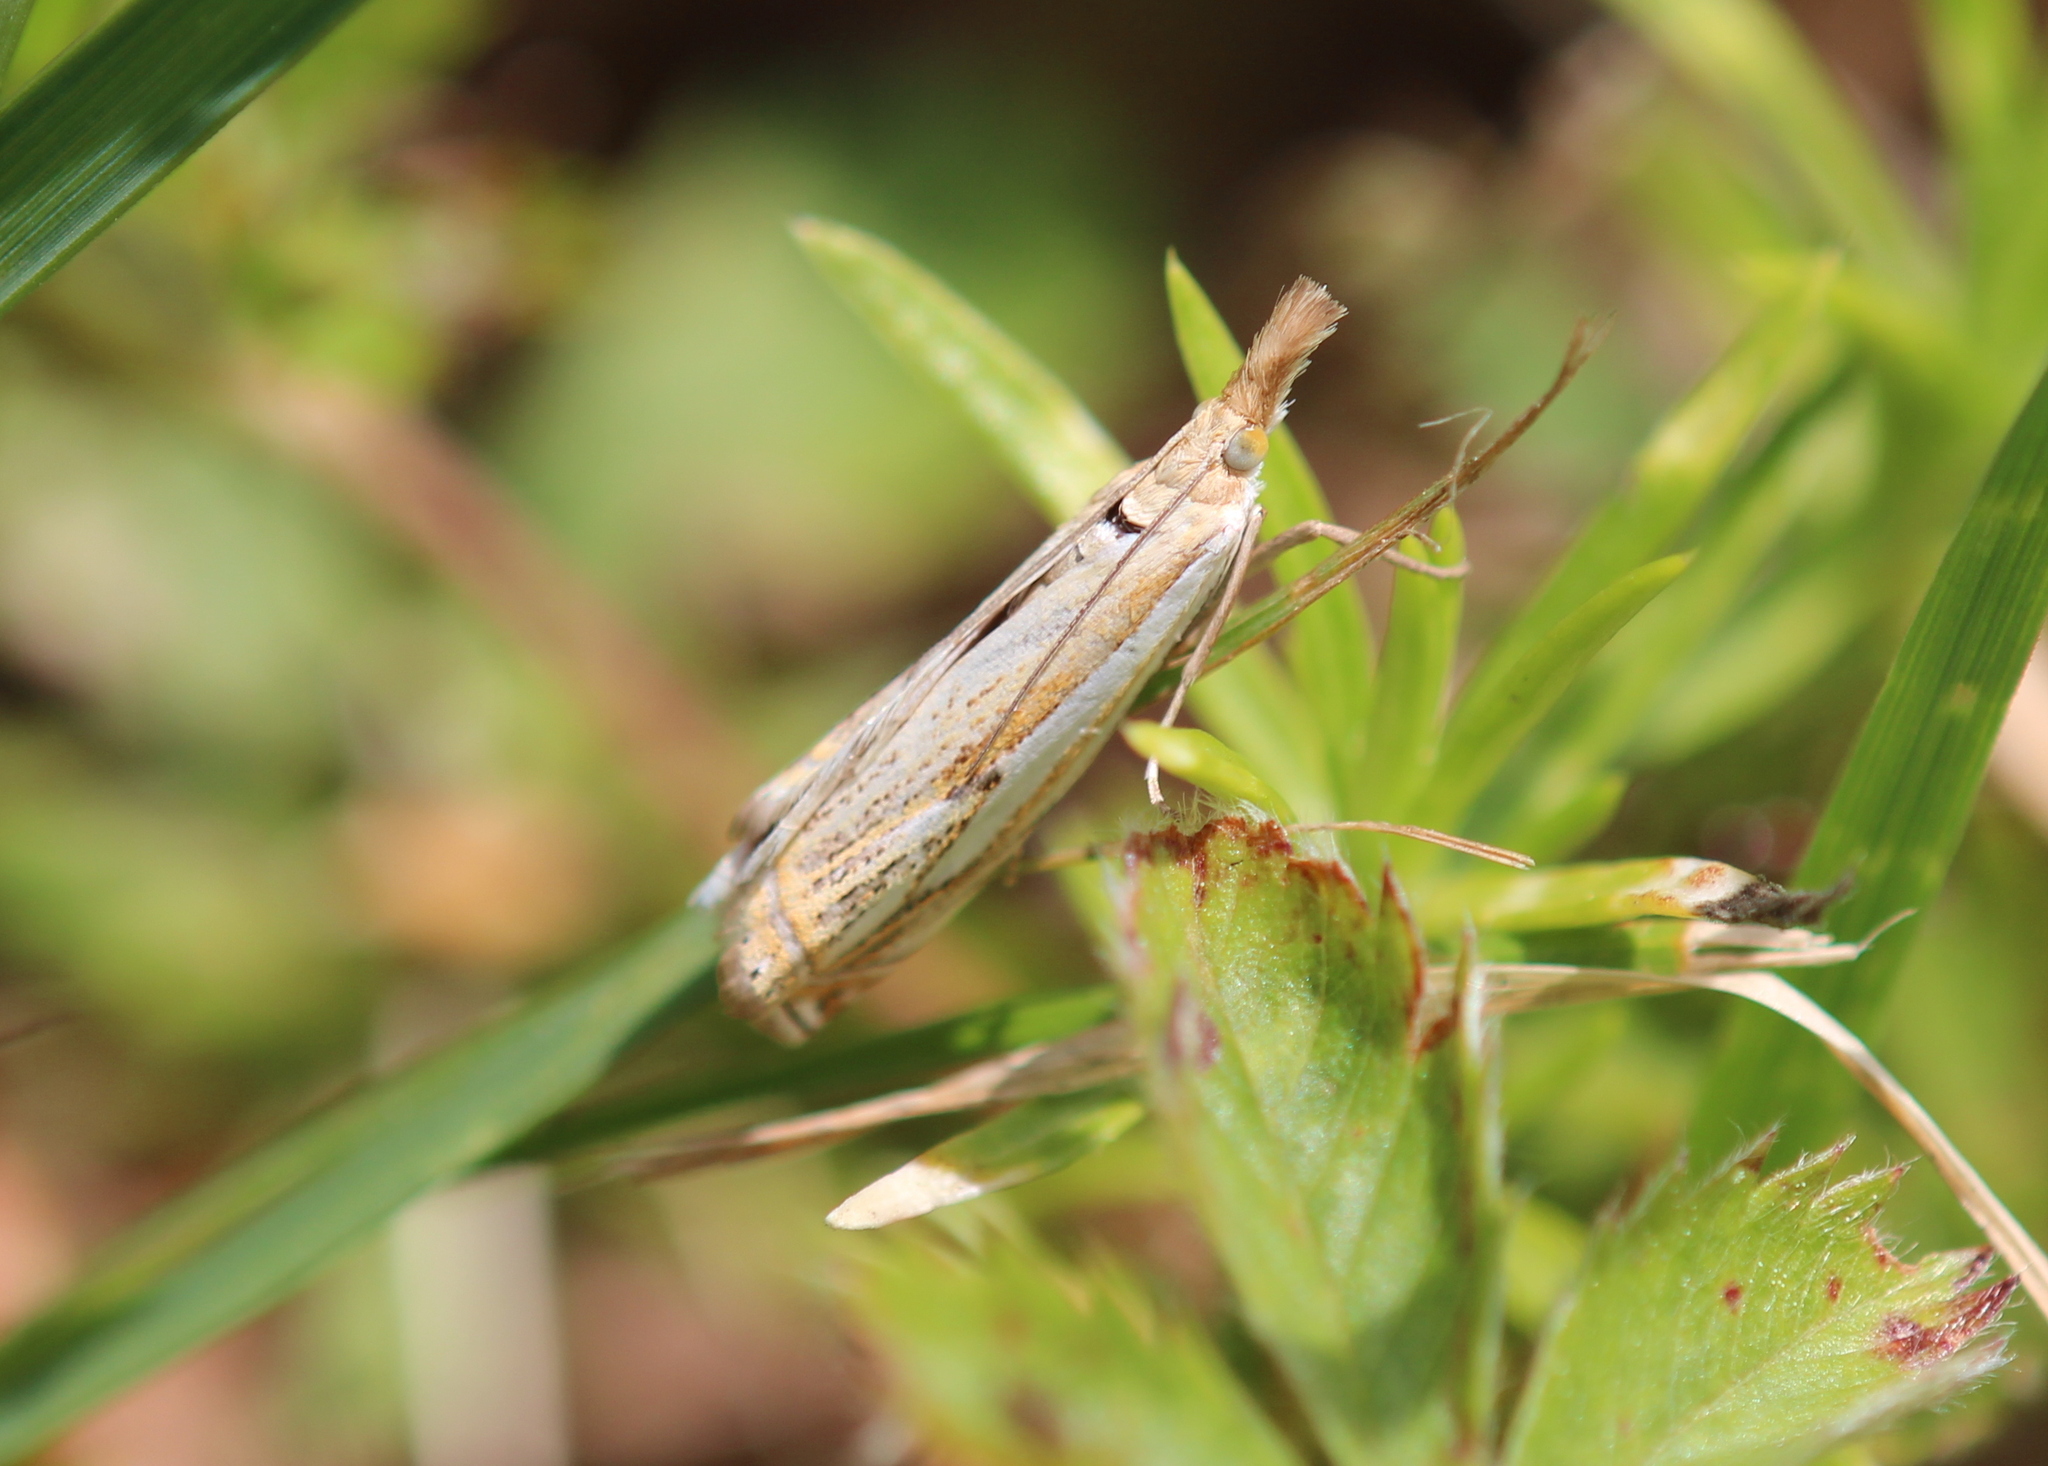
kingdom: Animalia
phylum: Arthropoda
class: Insecta
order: Lepidoptera
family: Crambidae
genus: Crambus
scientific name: Crambus saltuellus
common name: Pasture grass-veneer
